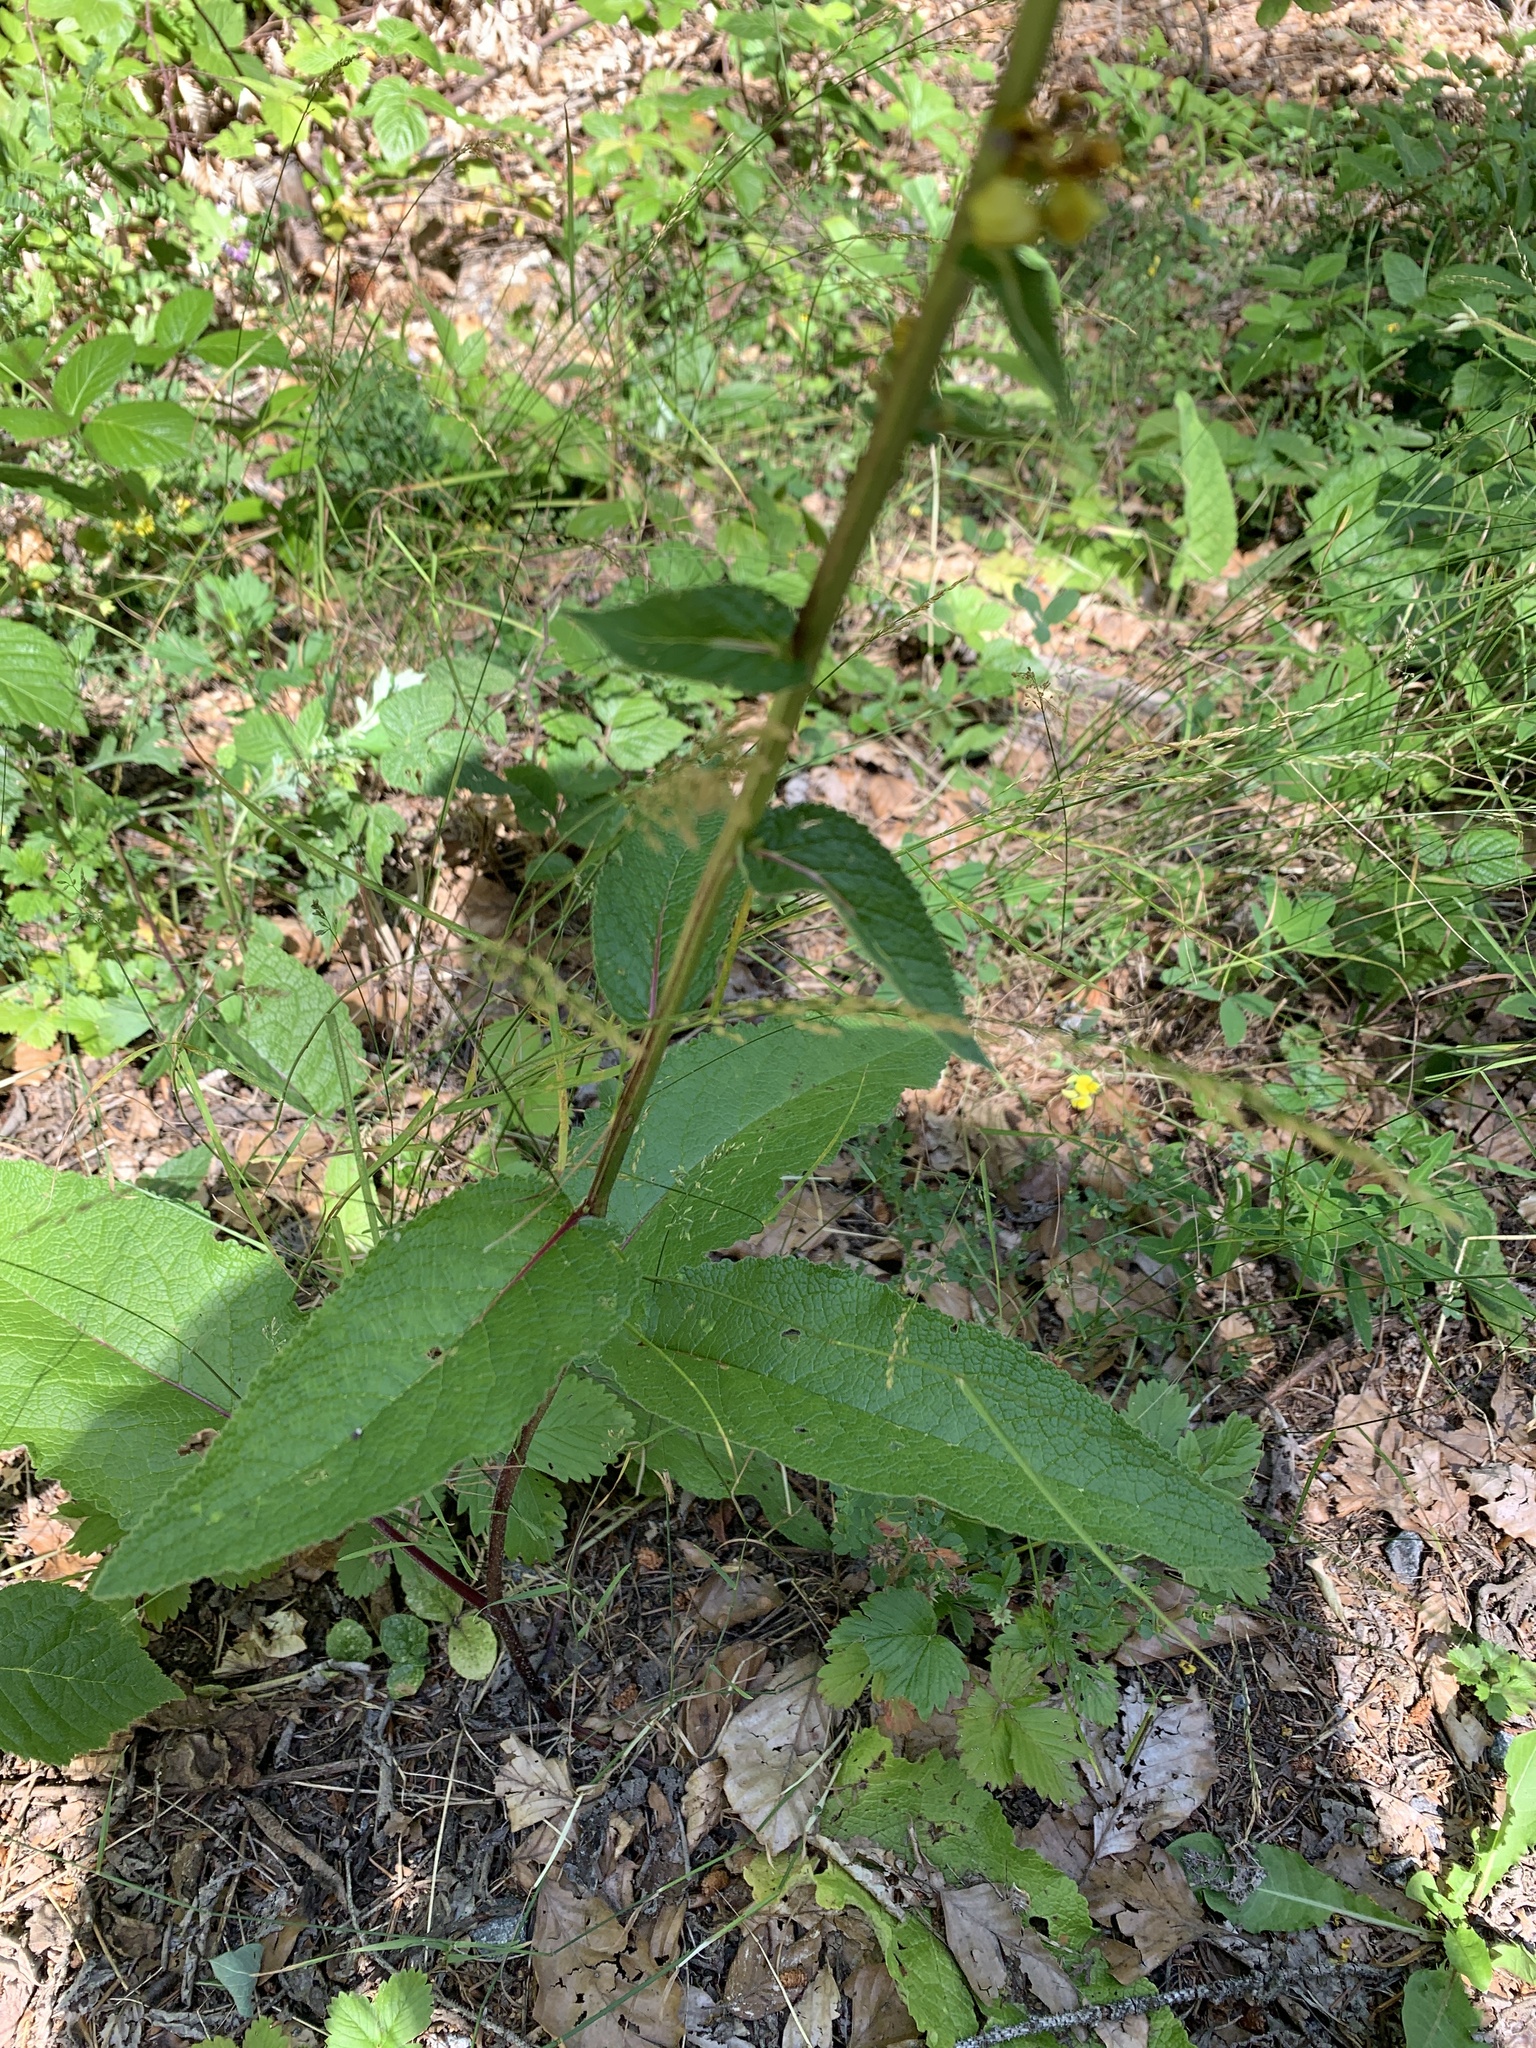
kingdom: Plantae
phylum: Tracheophyta
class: Magnoliopsida
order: Lamiales
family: Scrophulariaceae
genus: Verbascum
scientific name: Verbascum nigrum
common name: Dark mullein
